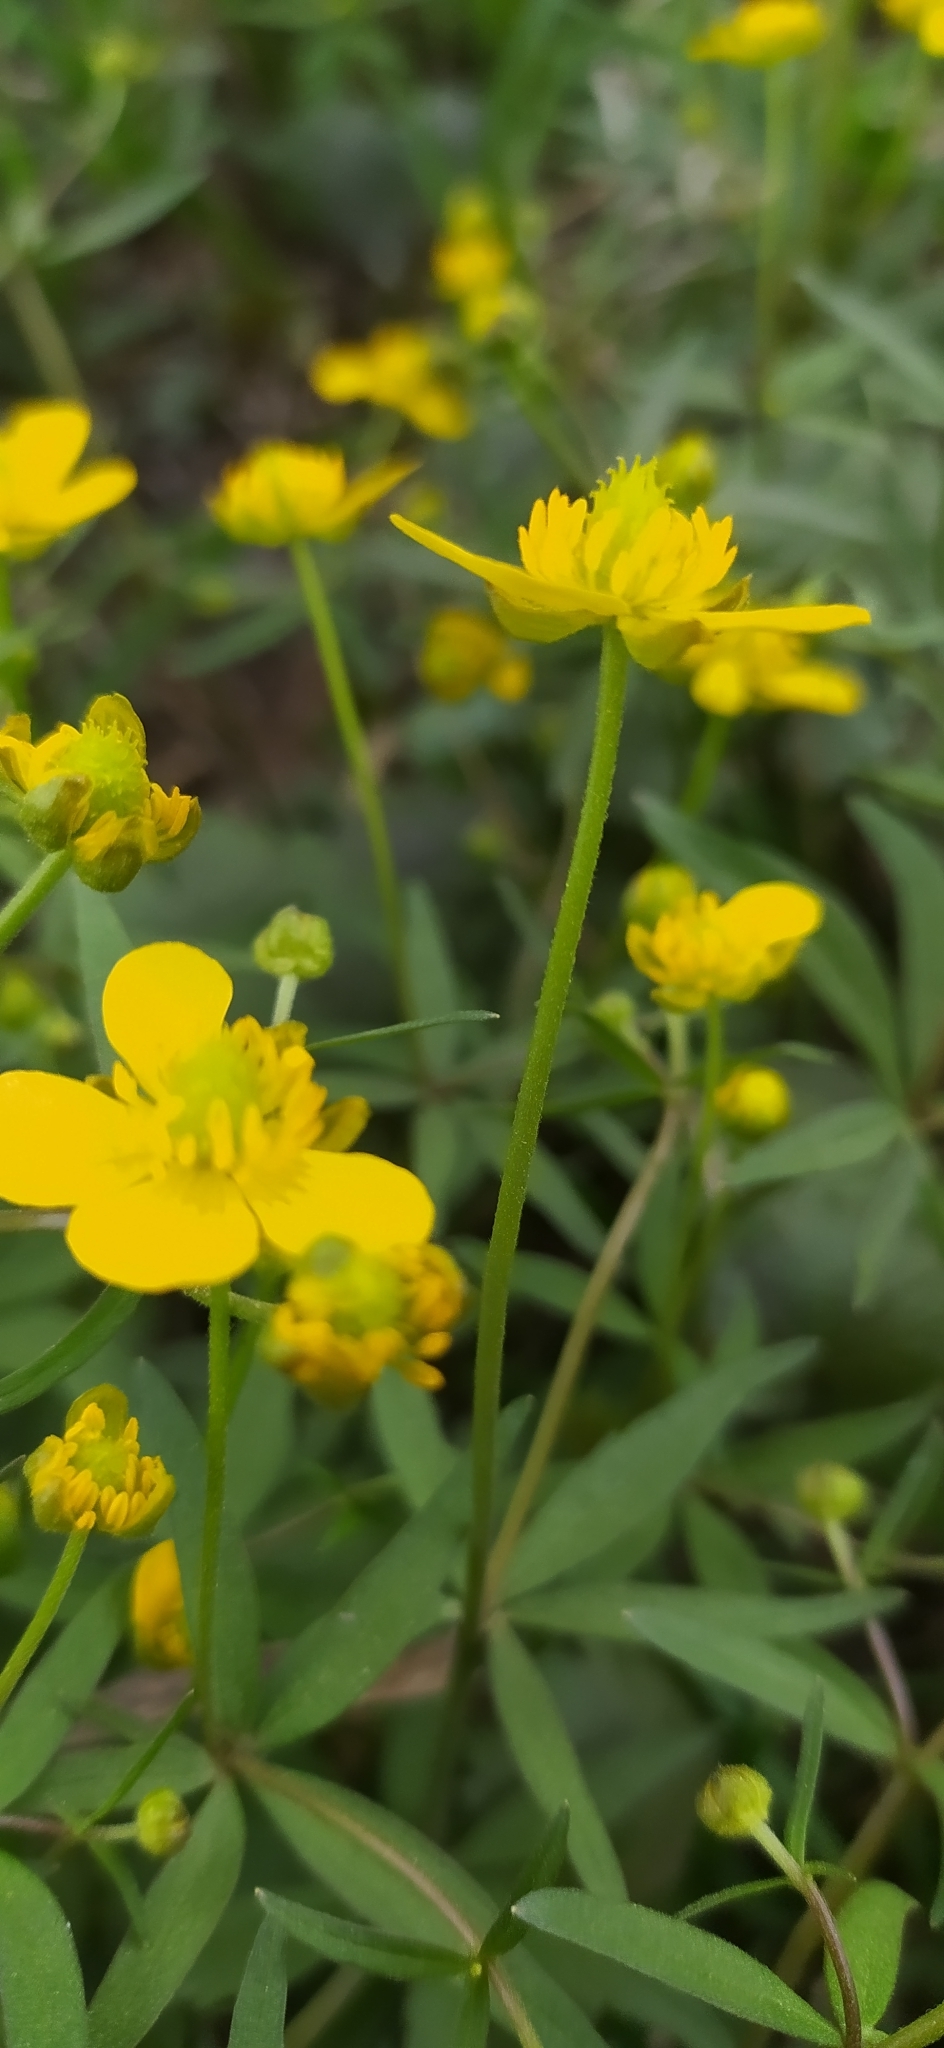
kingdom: Plantae
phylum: Tracheophyta
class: Magnoliopsida
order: Ranunculales
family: Ranunculaceae
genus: Ranunculus
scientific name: Ranunculus vjatkensis
